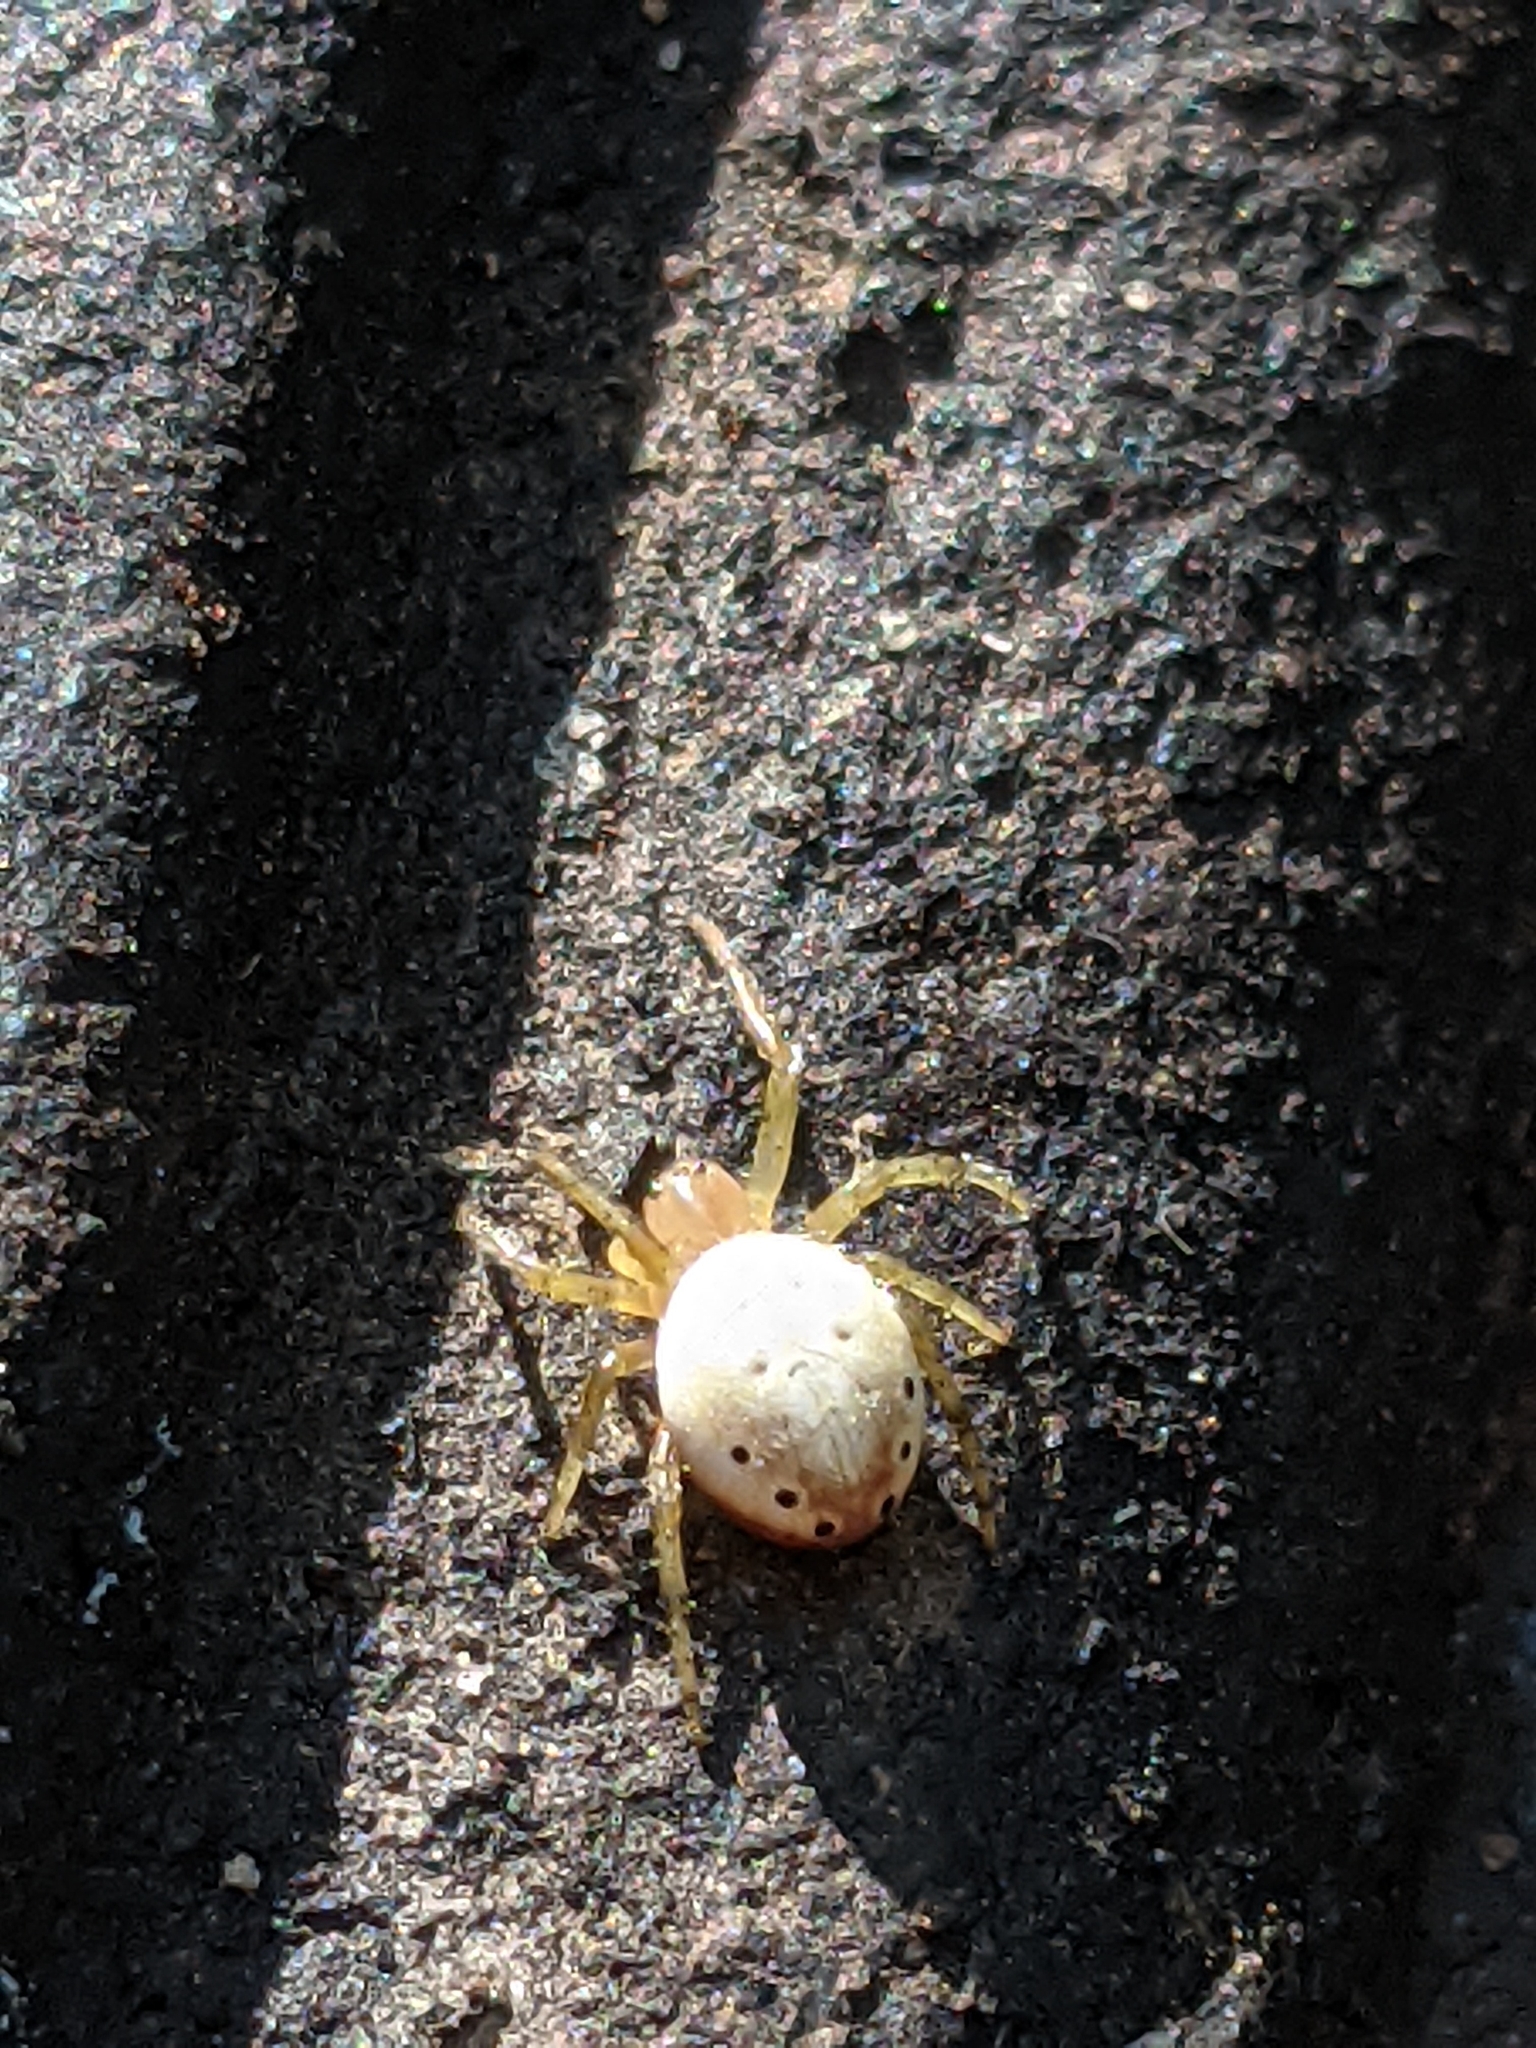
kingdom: Animalia
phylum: Arthropoda
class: Arachnida
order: Araneae
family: Araneidae
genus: Araniella
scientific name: Araniella displicata
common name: Sixspotted orb weaver
